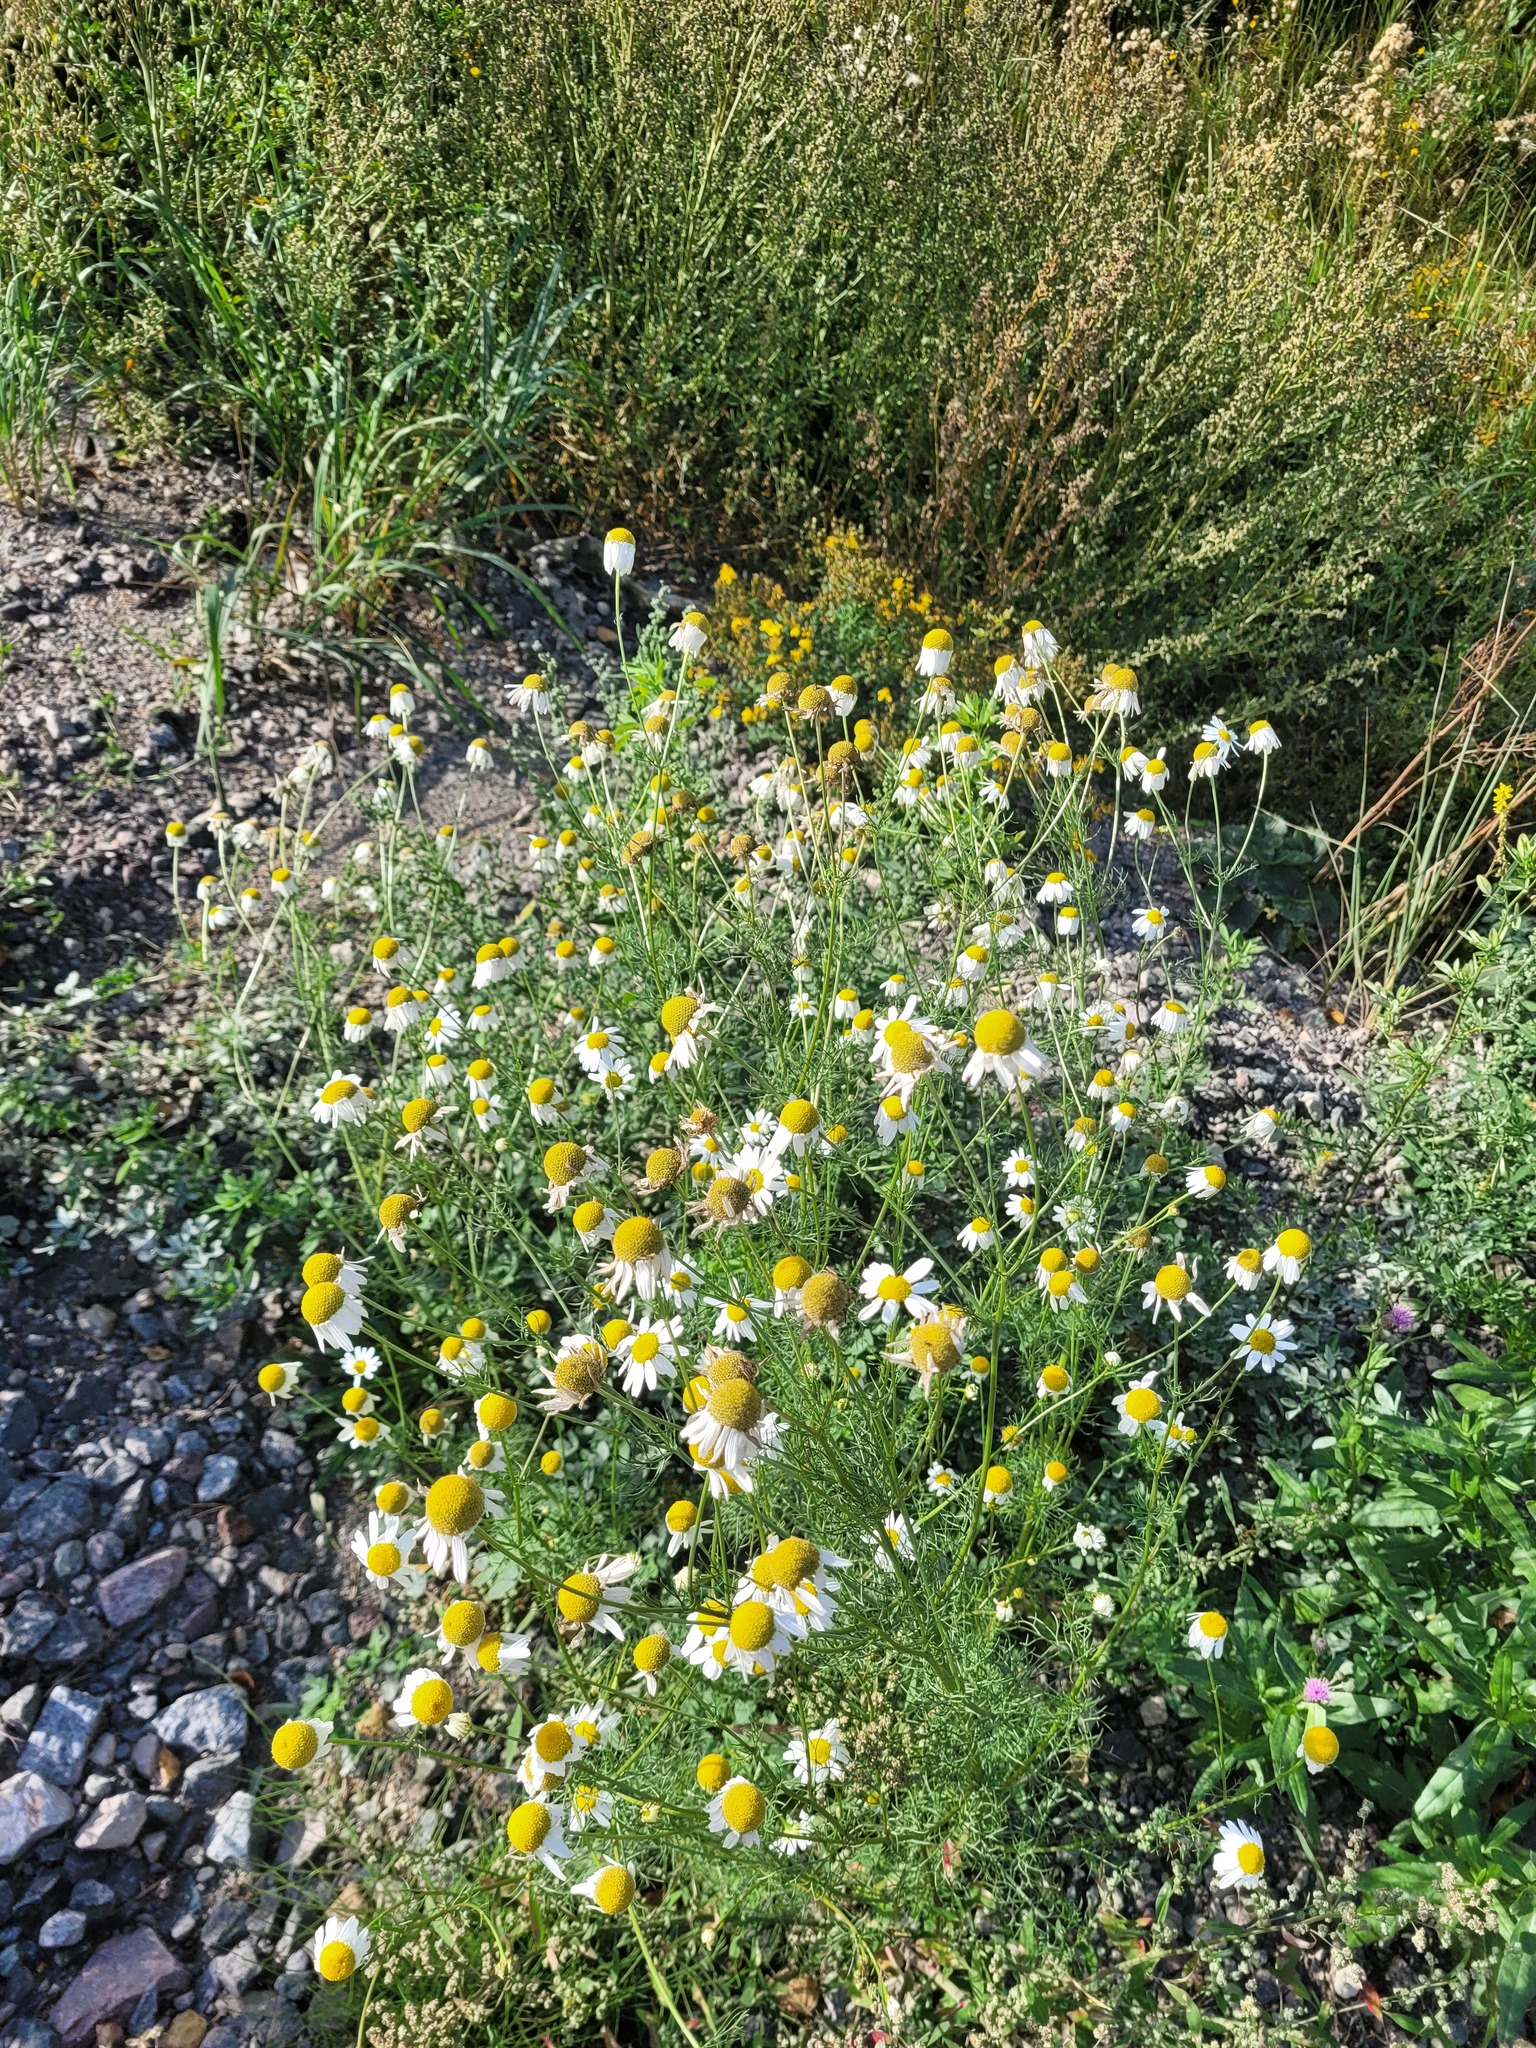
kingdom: Plantae
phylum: Tracheophyta
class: Magnoliopsida
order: Asterales
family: Asteraceae
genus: Tripleurospermum
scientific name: Tripleurospermum inodorum
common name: Scentless mayweed
